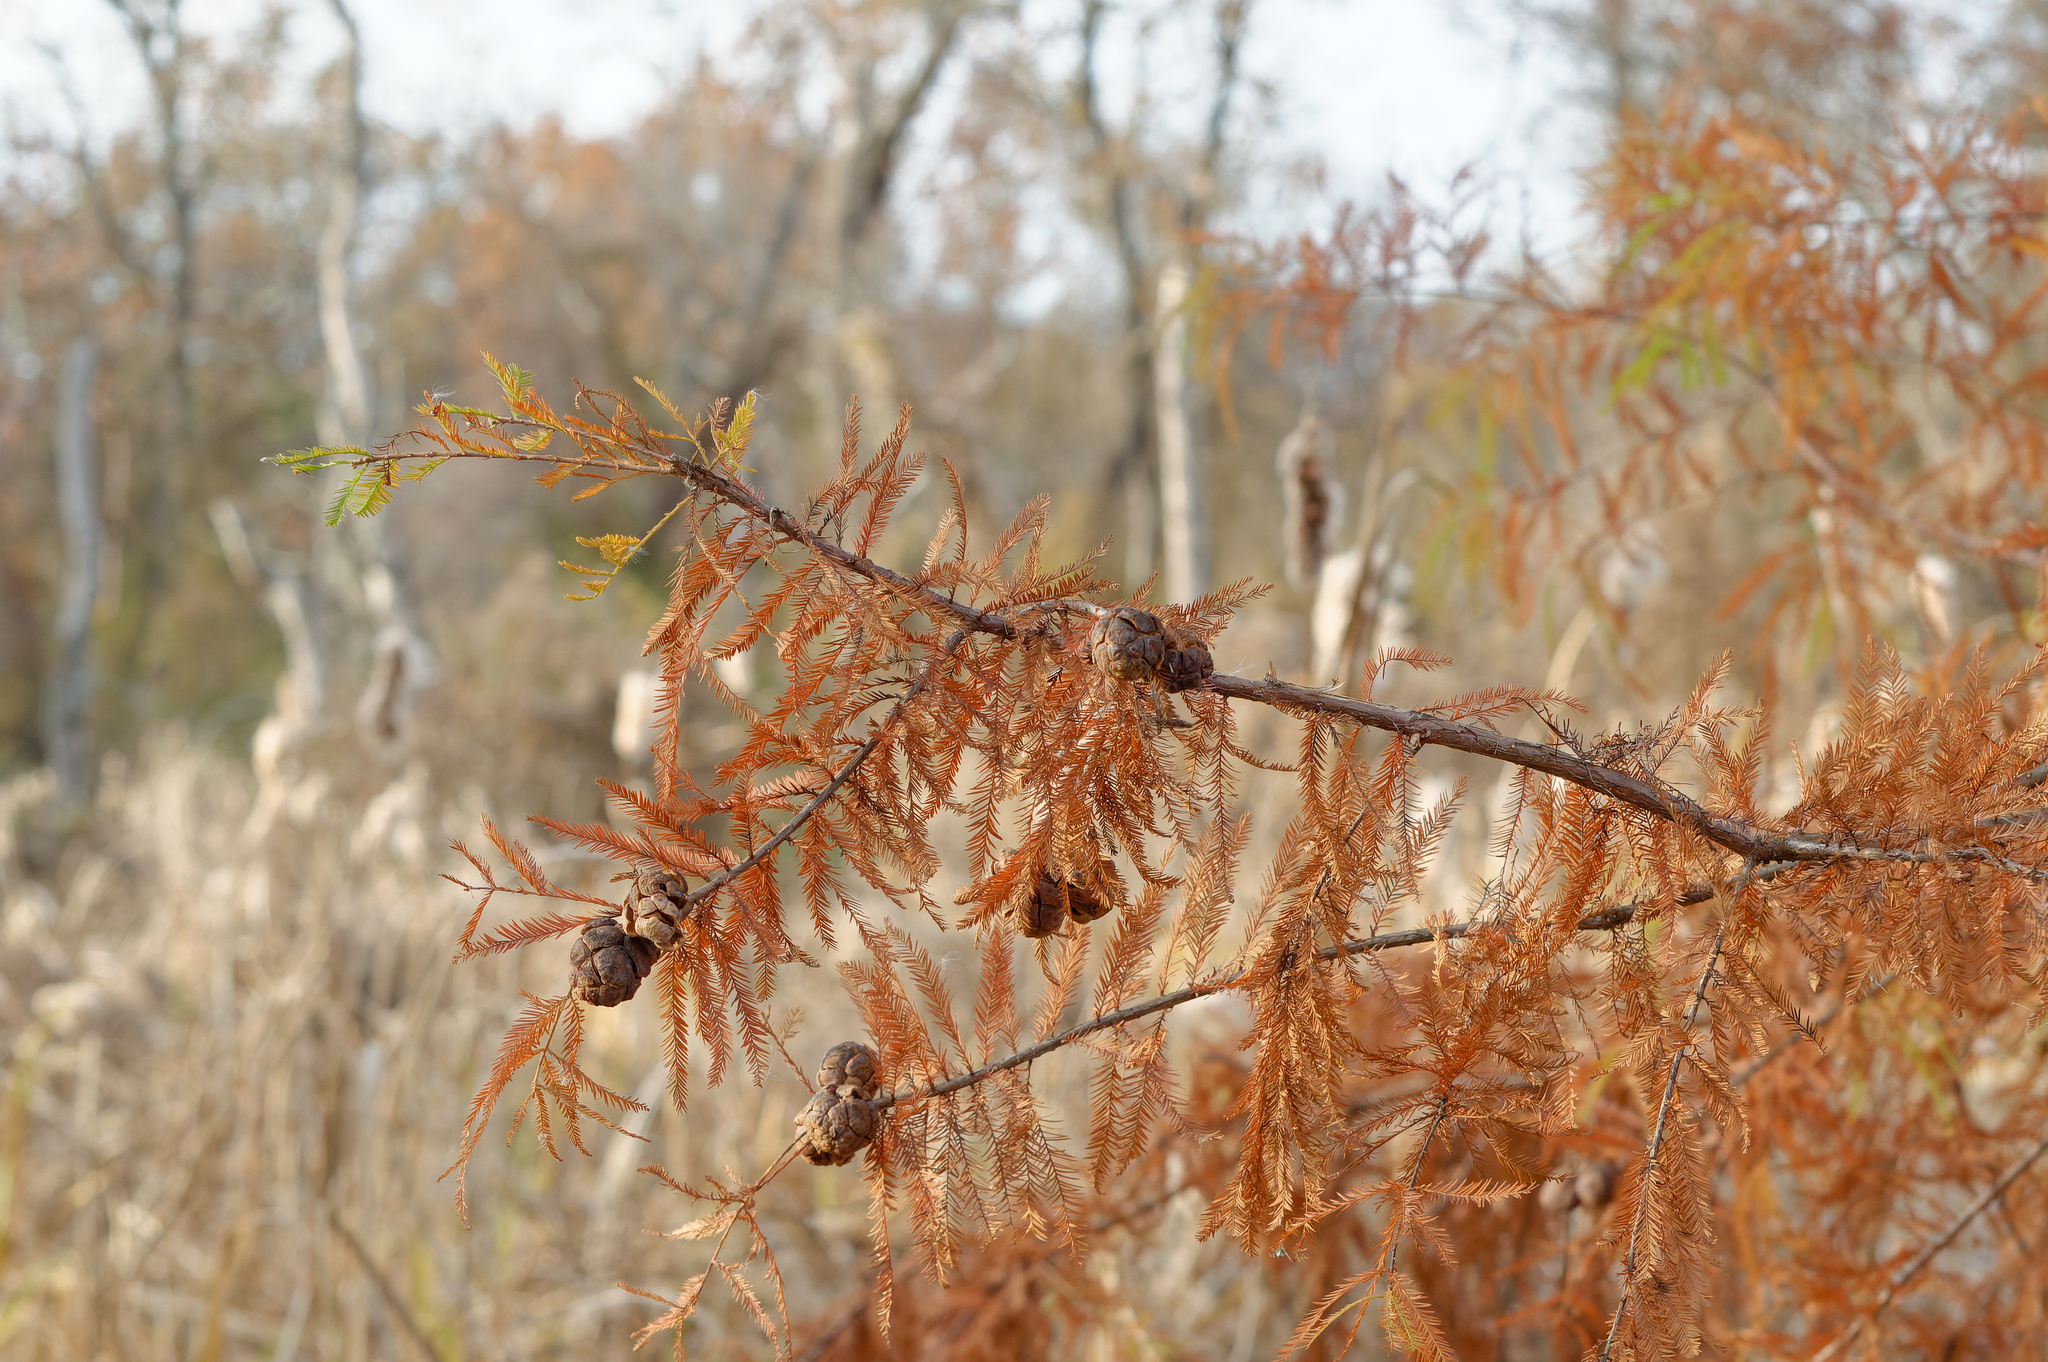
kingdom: Plantae
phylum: Tracheophyta
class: Pinopsida
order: Pinales
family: Cupressaceae
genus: Taxodium
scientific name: Taxodium distichum
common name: Bald cypress
